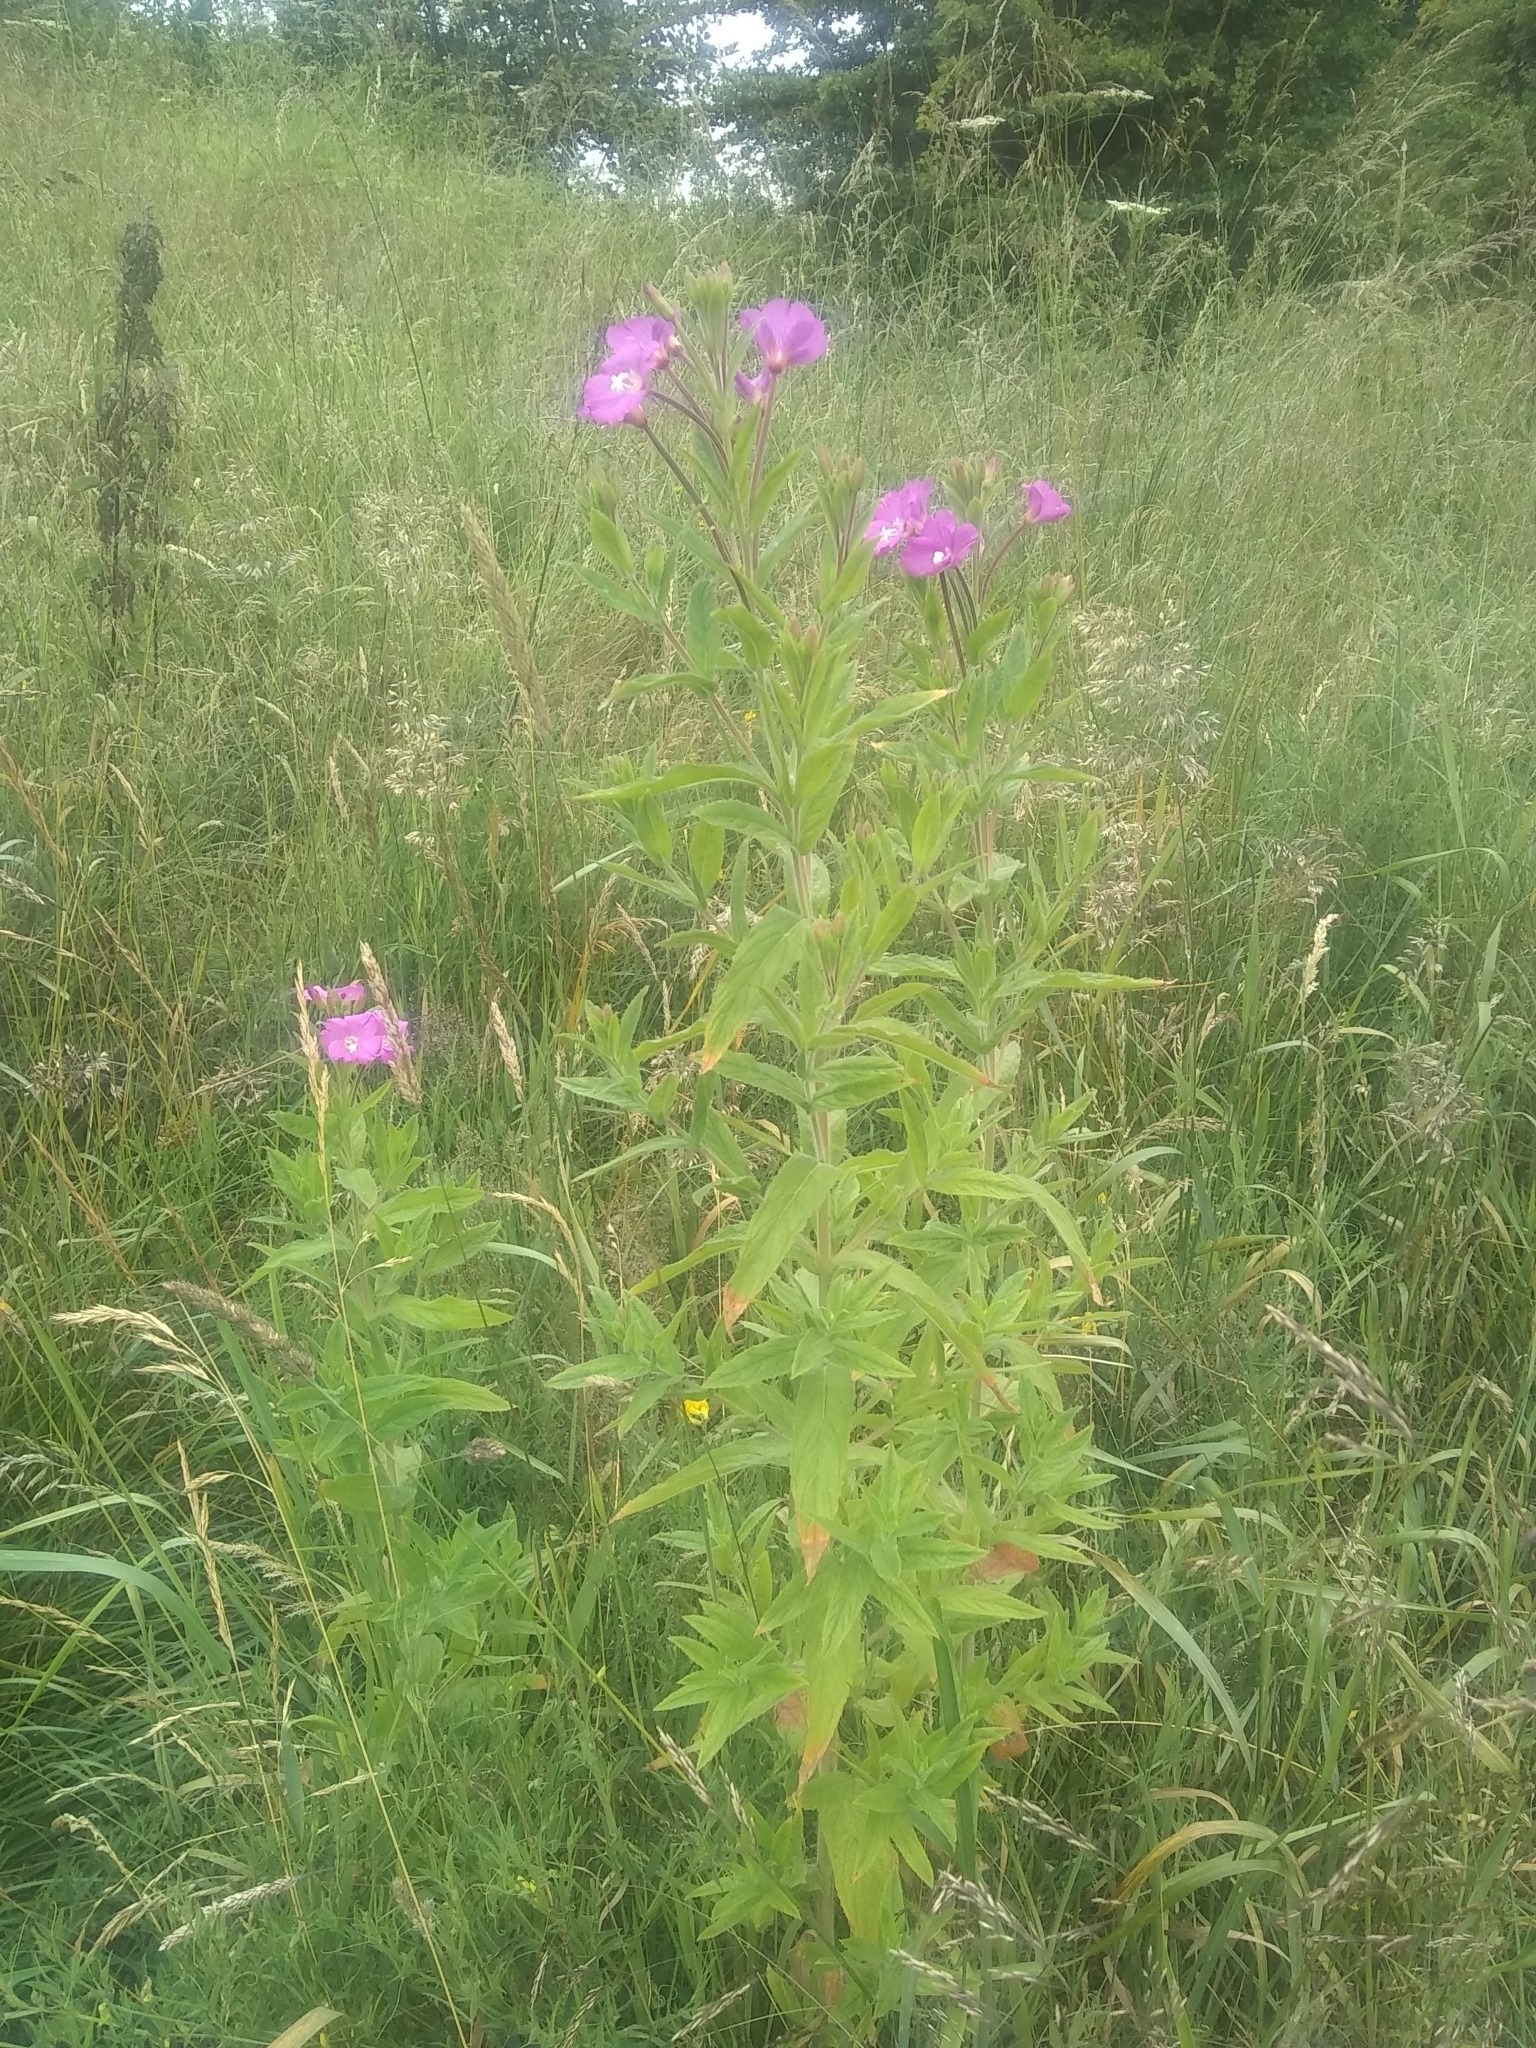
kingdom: Plantae
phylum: Tracheophyta
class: Magnoliopsida
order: Myrtales
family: Onagraceae
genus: Epilobium
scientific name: Epilobium hirsutum
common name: Great willowherb
